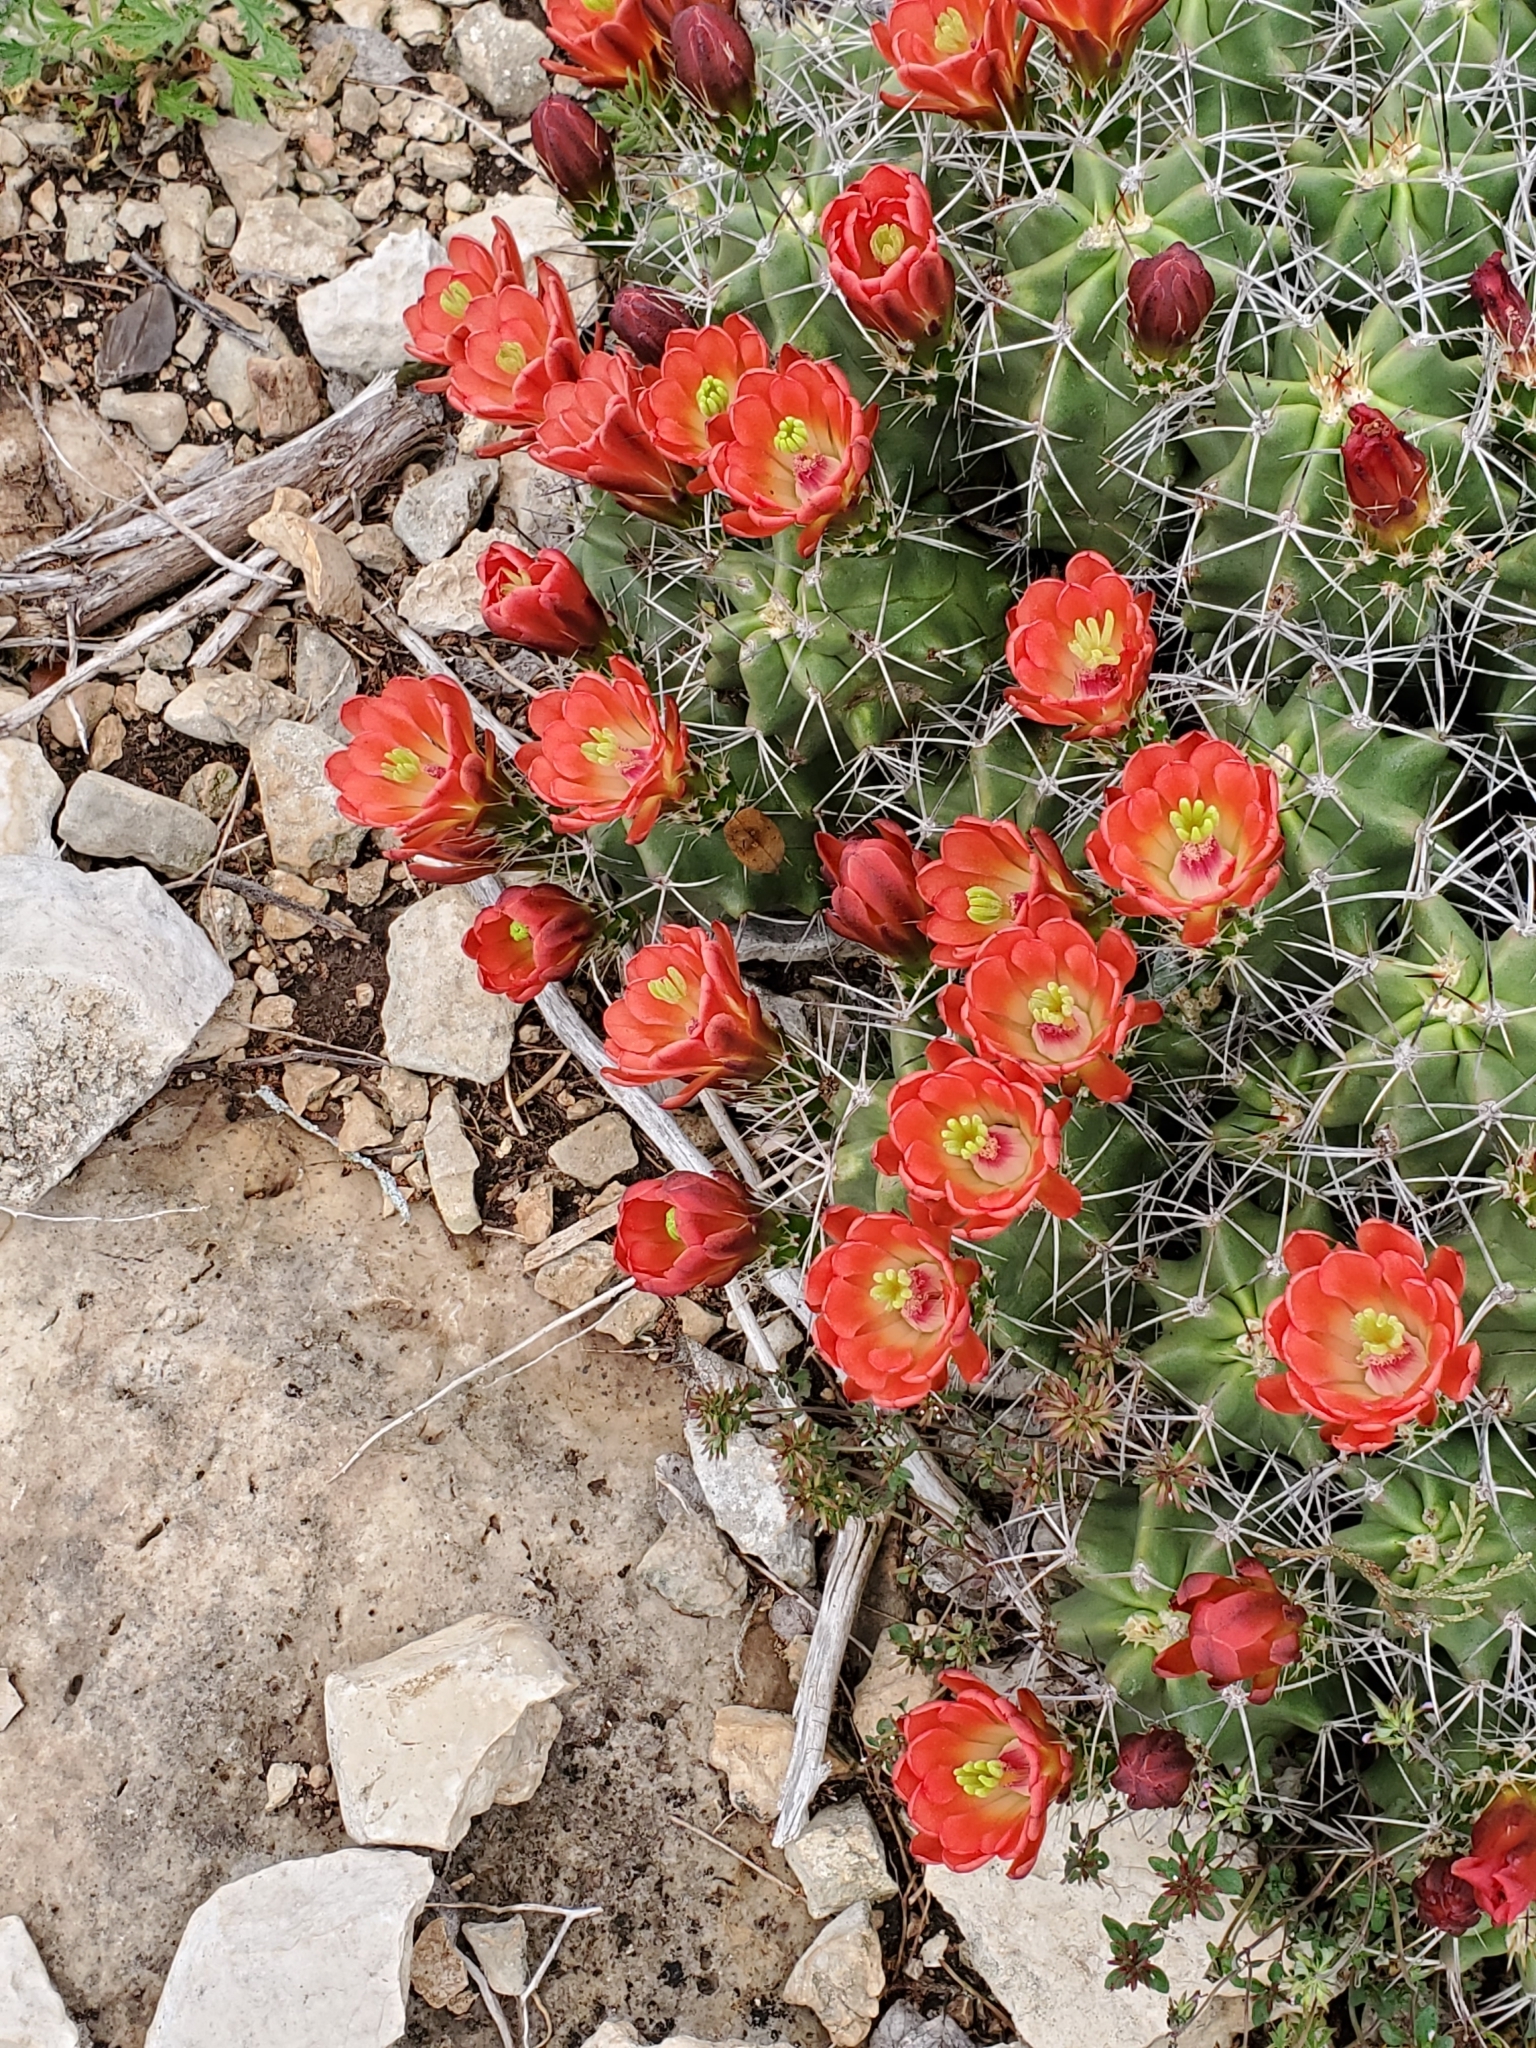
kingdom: Plantae
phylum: Tracheophyta
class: Magnoliopsida
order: Caryophyllales
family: Cactaceae
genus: Echinocereus
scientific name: Echinocereus coccineus
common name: Scarlet hedgehog cactus
